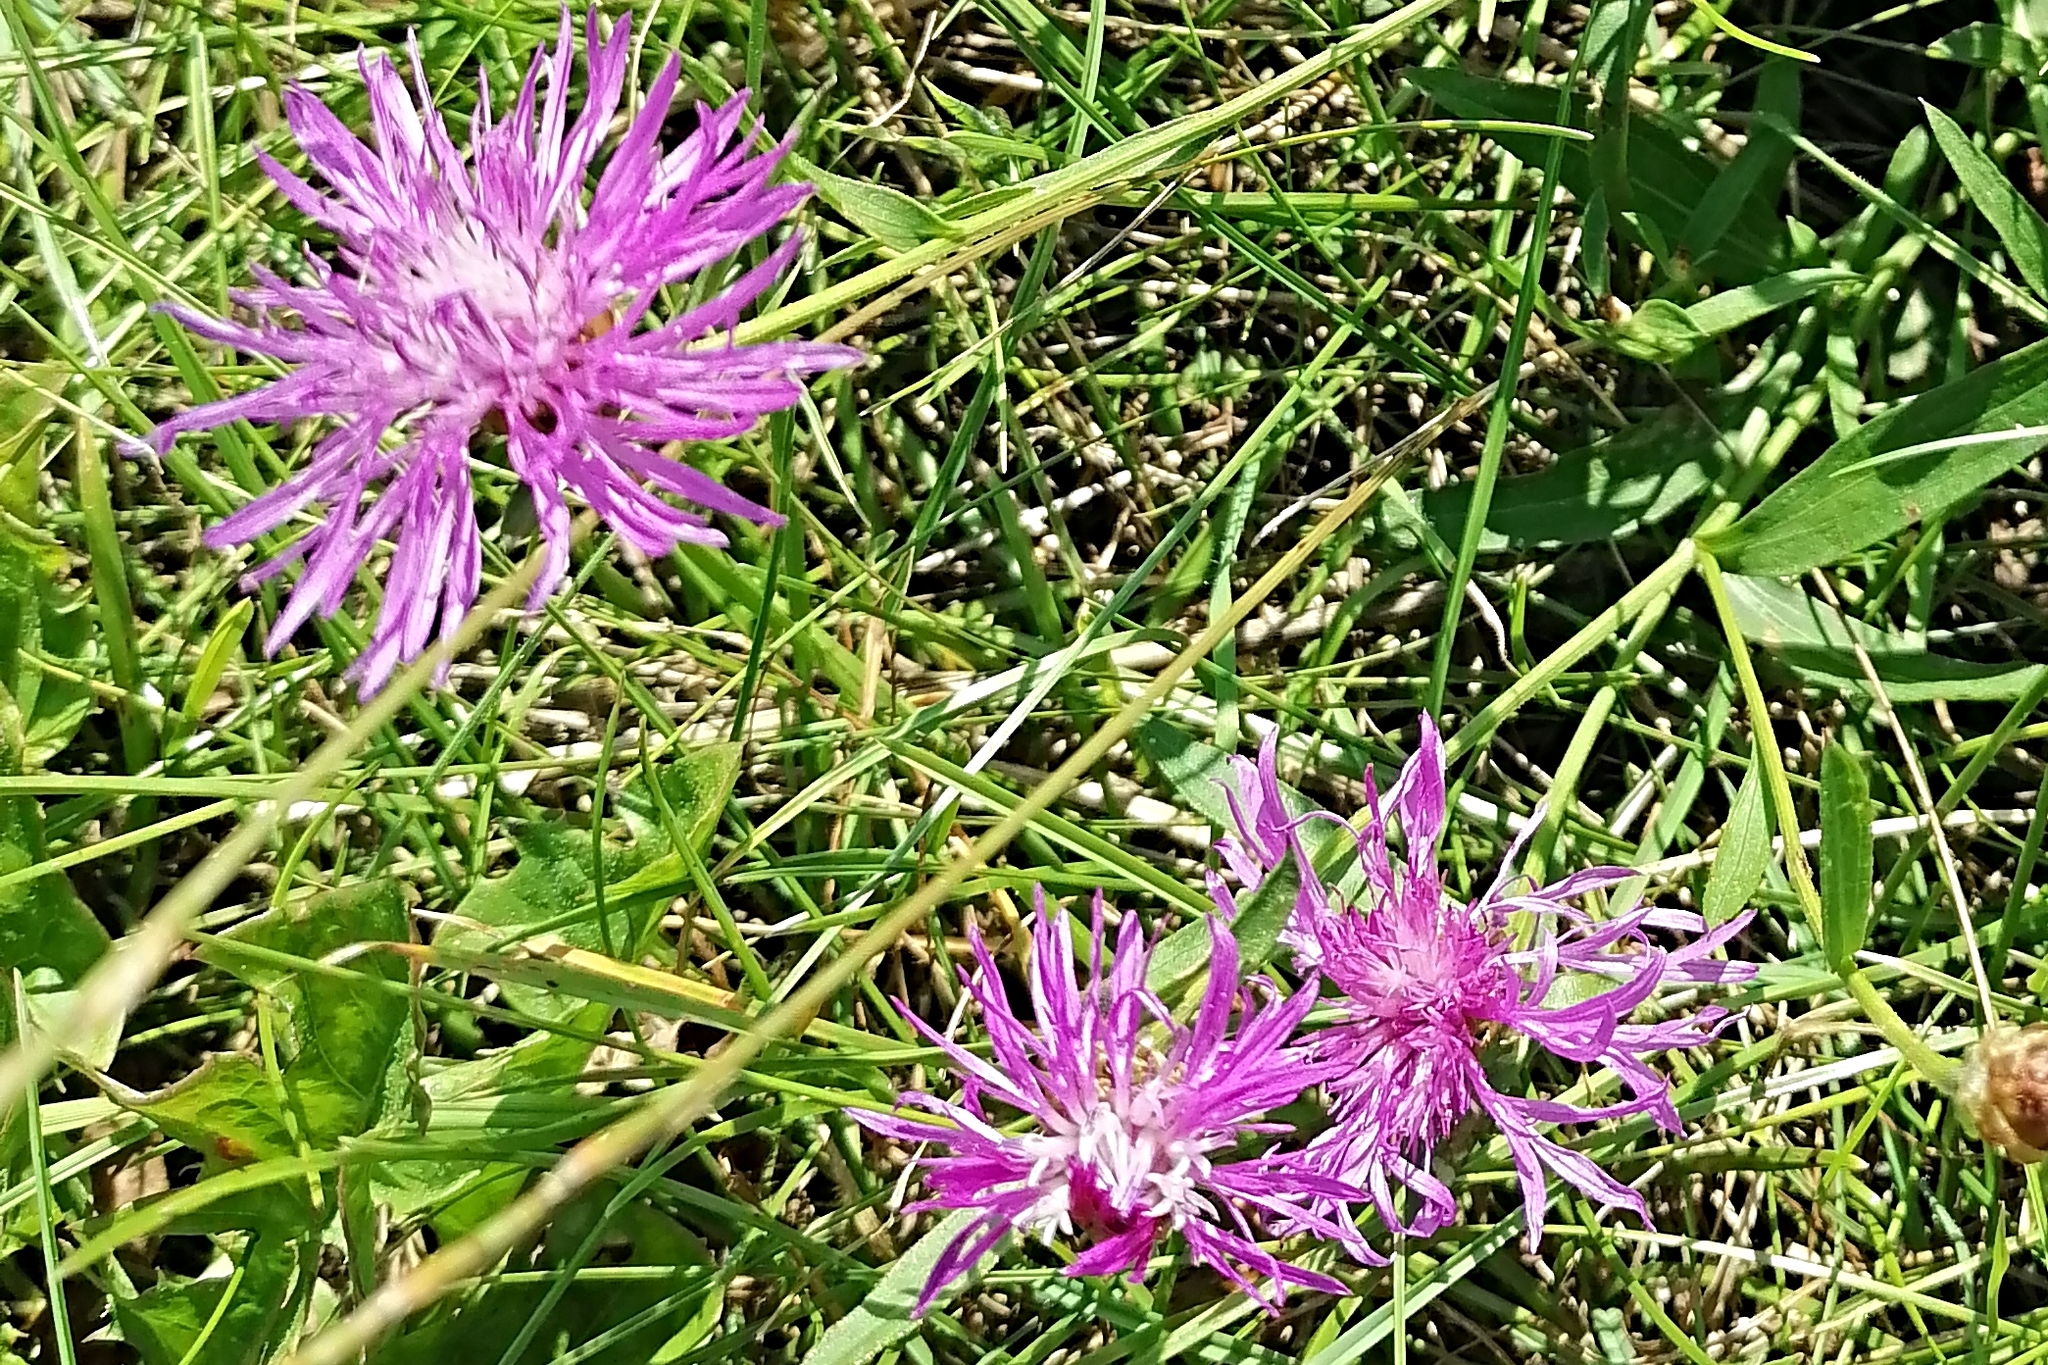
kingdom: Plantae
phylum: Tracheophyta
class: Magnoliopsida
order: Asterales
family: Asteraceae
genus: Centaurea
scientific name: Centaurea jacea
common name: Brown knapweed
